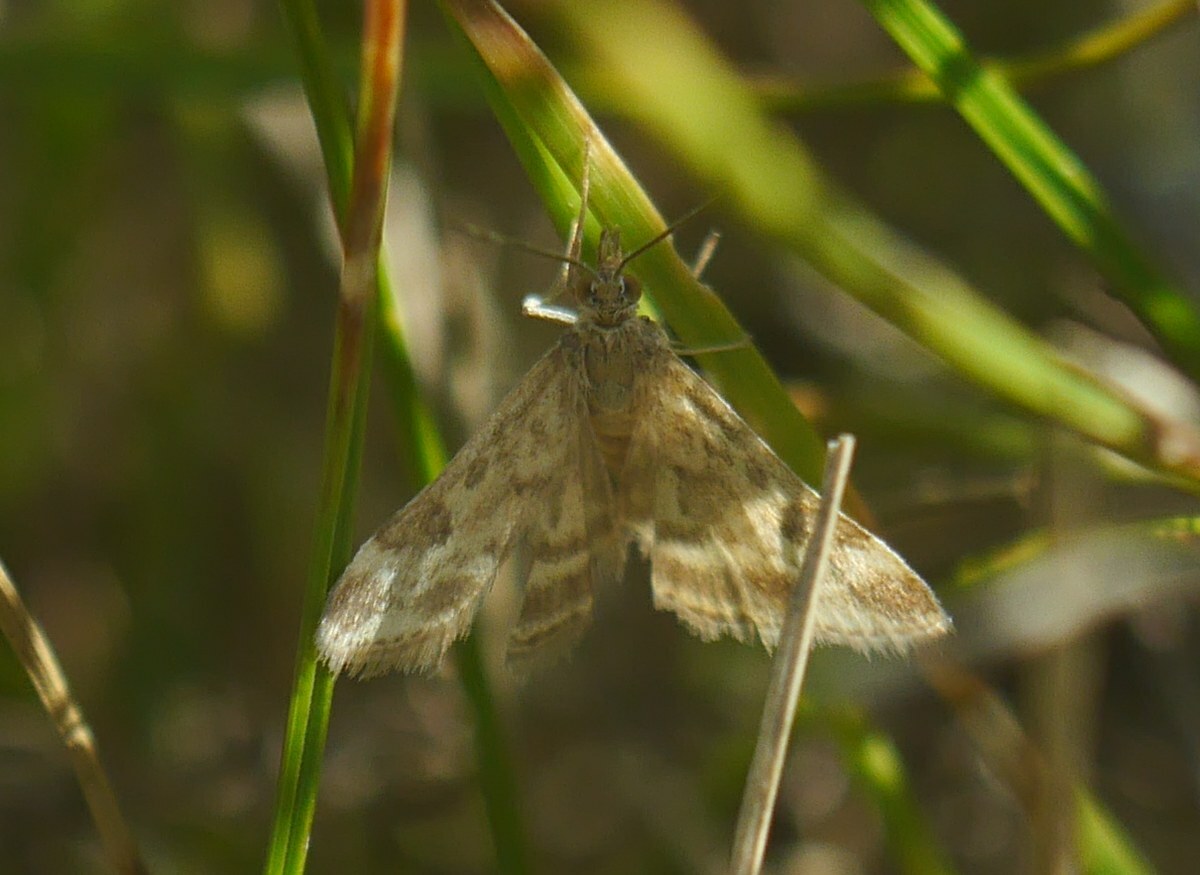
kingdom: Animalia
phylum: Arthropoda
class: Insecta
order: Lepidoptera
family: Crambidae
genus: Pyrausta
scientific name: Pyrausta despicata
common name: Straw-barred pearl
